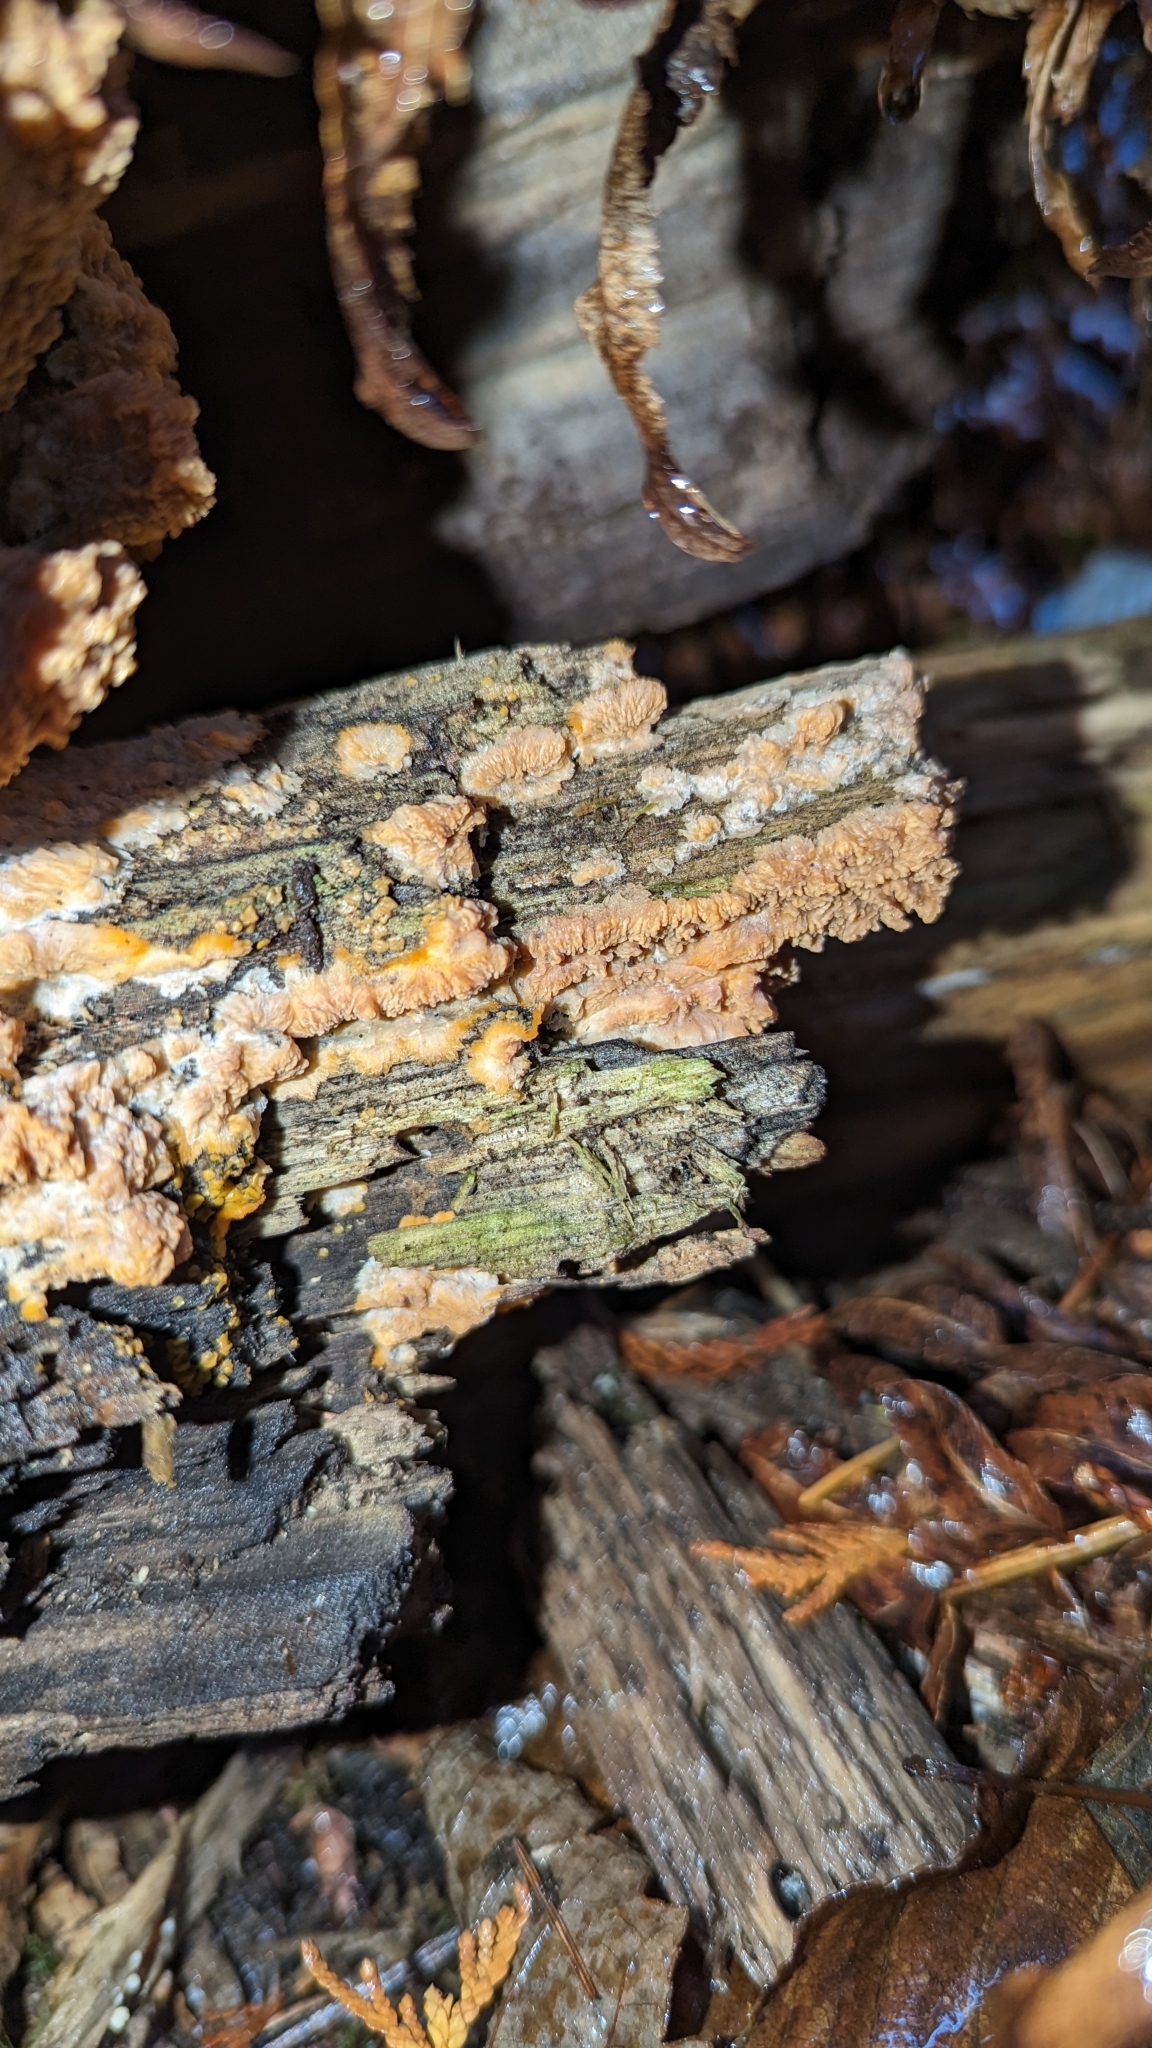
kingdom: Fungi
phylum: Basidiomycota
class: Agaricomycetes
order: Polyporales
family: Meruliaceae
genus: Phlebia
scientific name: Phlebia radiata
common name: Wrinkled crust
